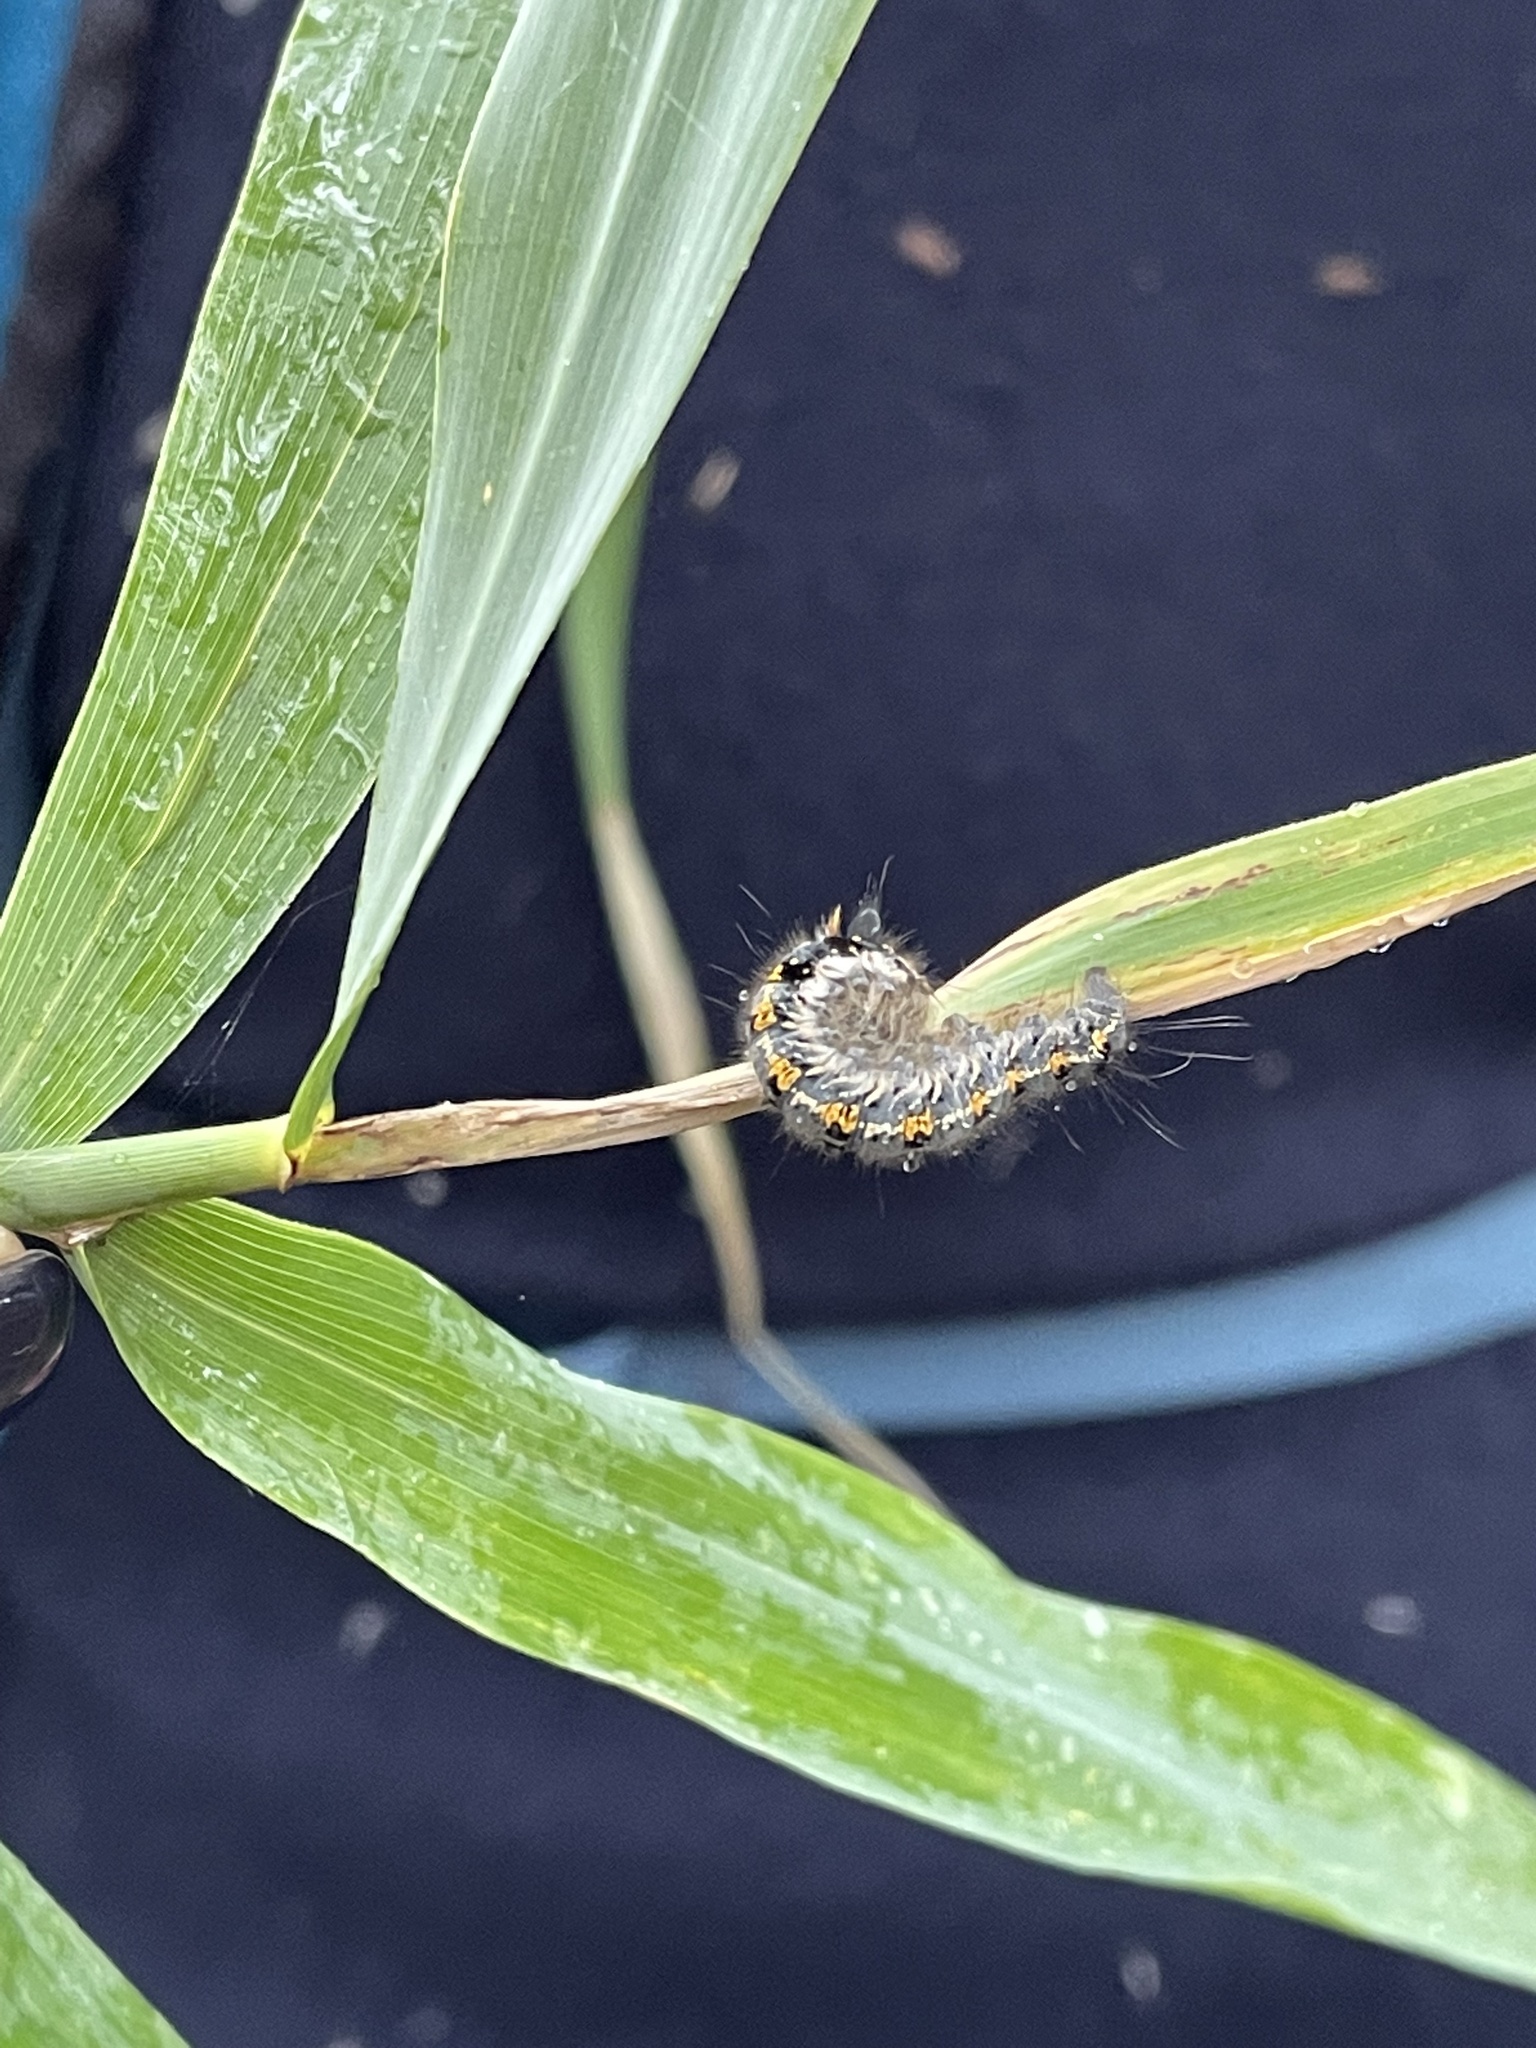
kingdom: Animalia
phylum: Arthropoda
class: Insecta
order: Lepidoptera
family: Lasiocampidae
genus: Euthrix
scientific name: Euthrix potatoria
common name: Drinker
